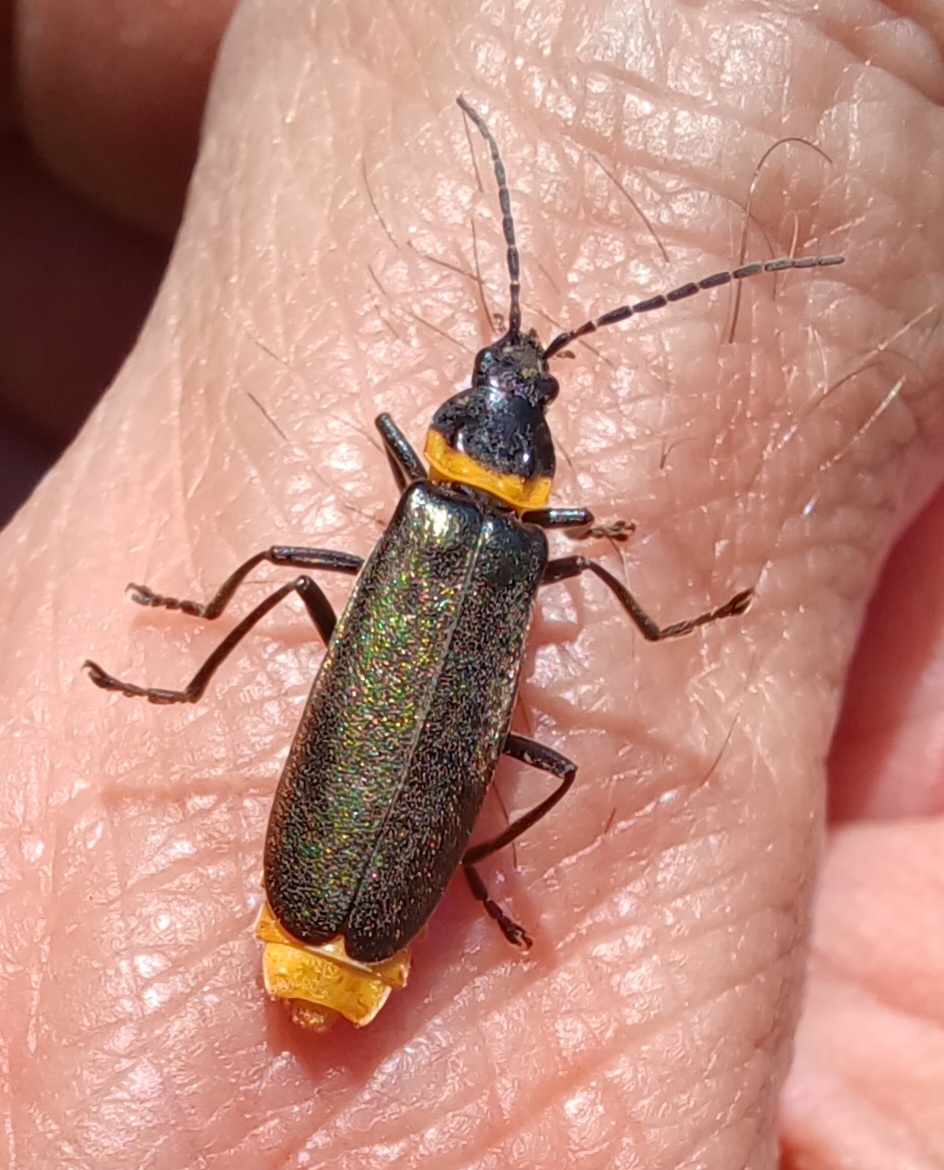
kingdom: Animalia
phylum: Arthropoda
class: Insecta
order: Coleoptera
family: Cantharidae
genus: Chauliognathus
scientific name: Chauliognathus
